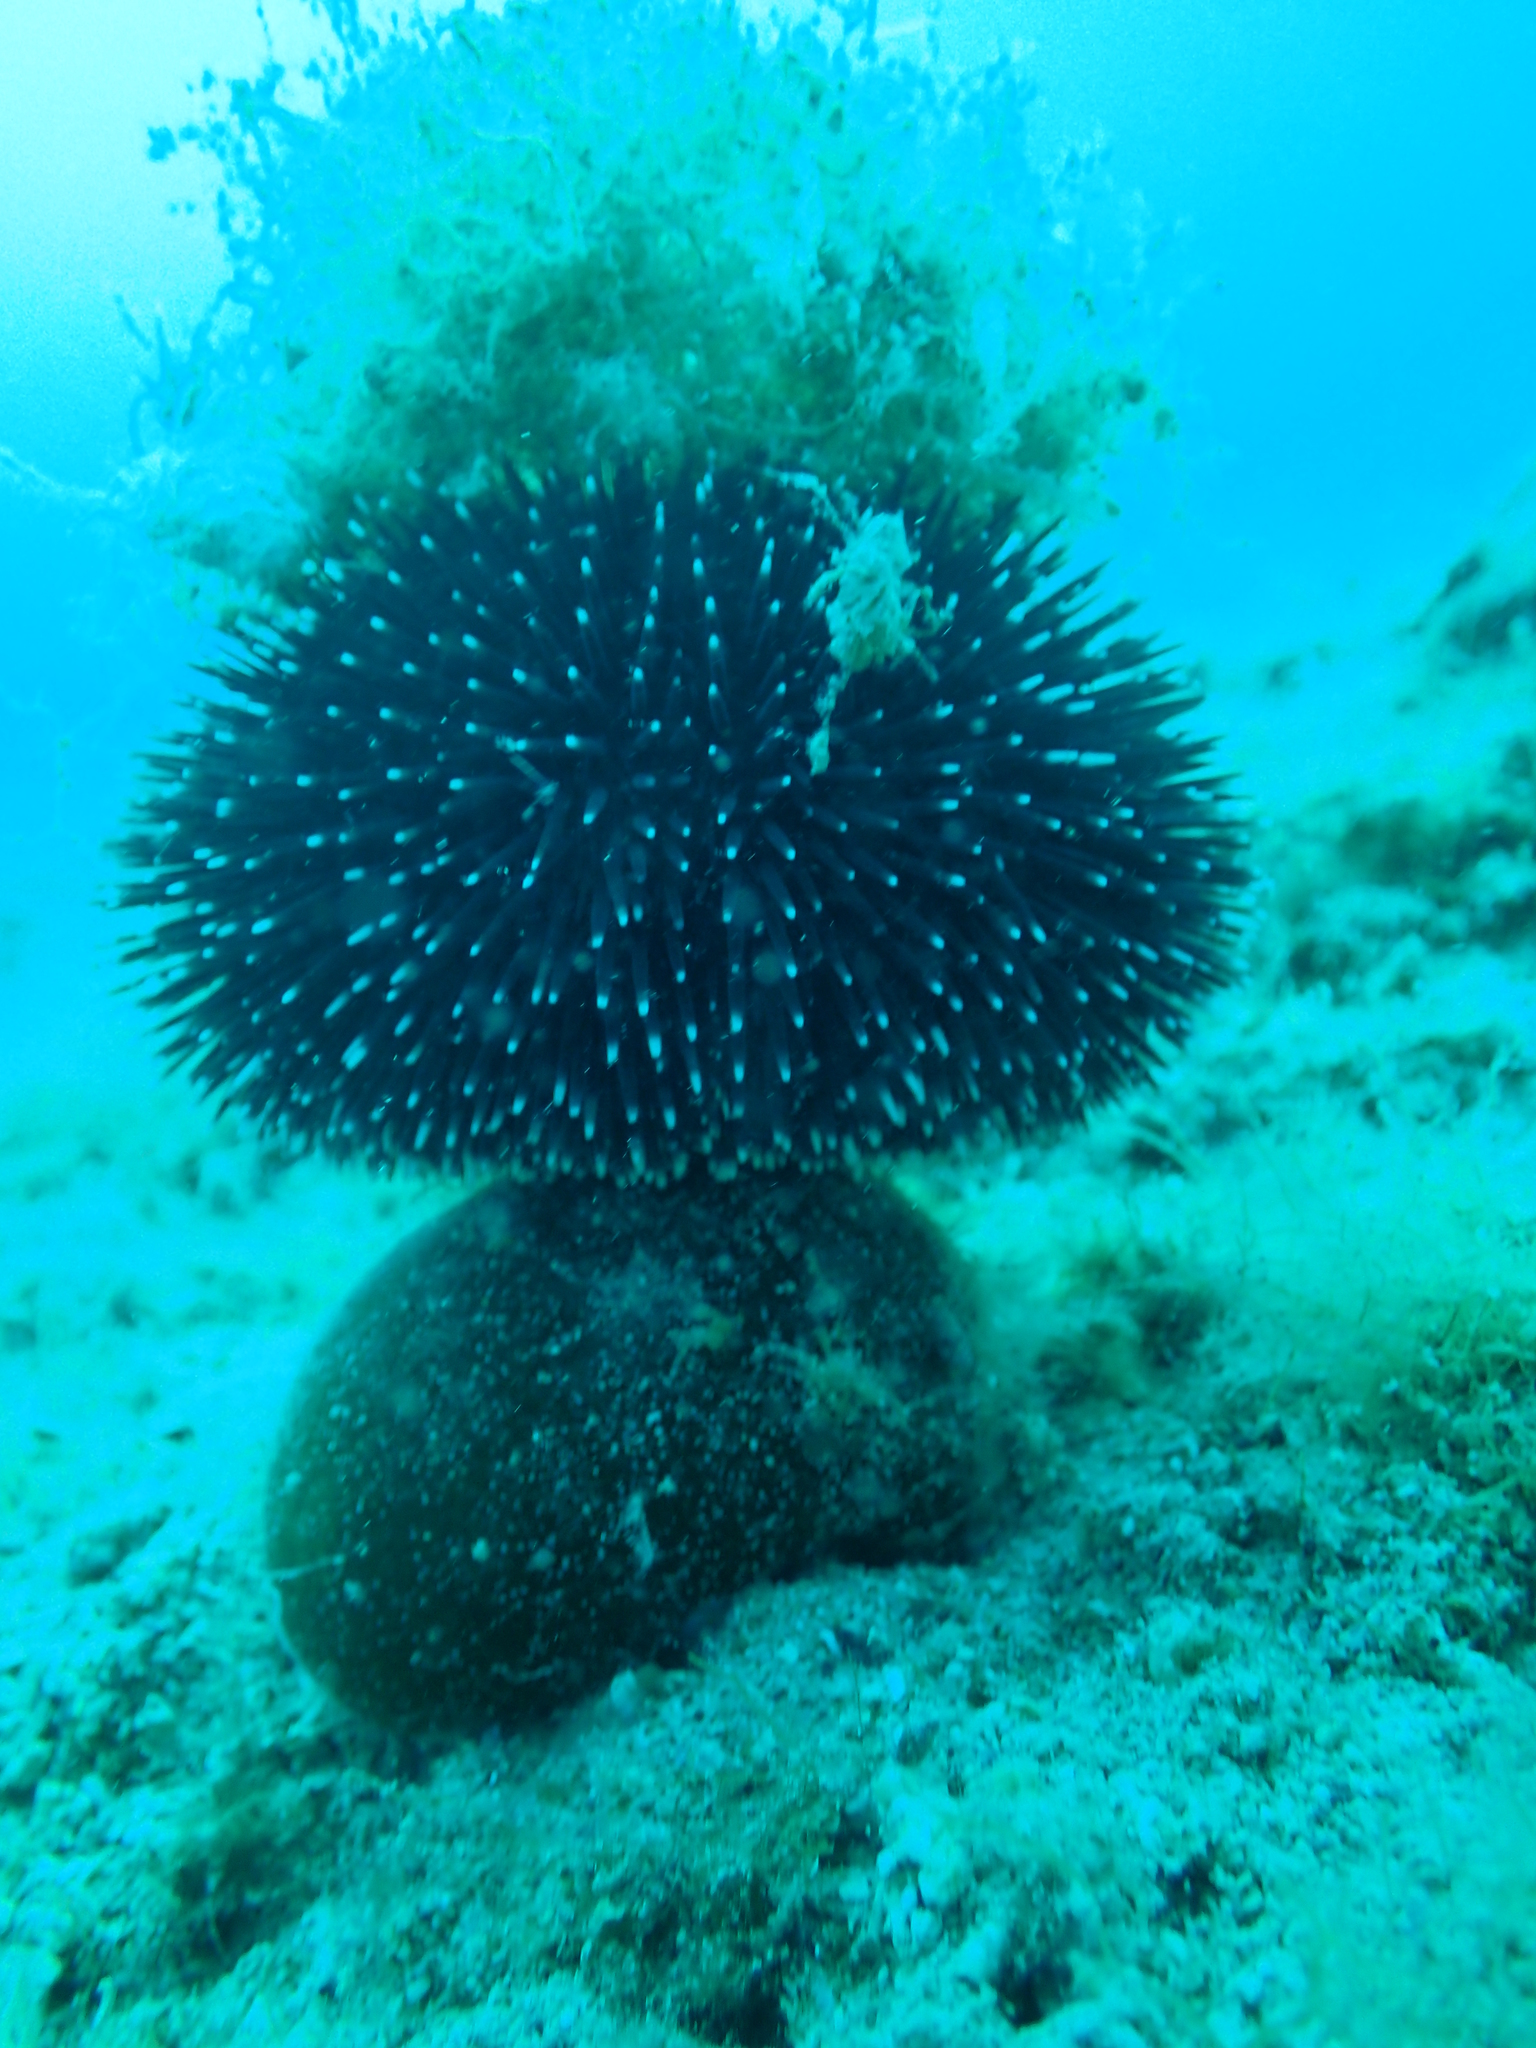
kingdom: Animalia
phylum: Echinodermata
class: Echinoidea
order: Camarodonta
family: Toxopneustidae
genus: Sphaerechinus
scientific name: Sphaerechinus granularis
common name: Violet sea urchin
